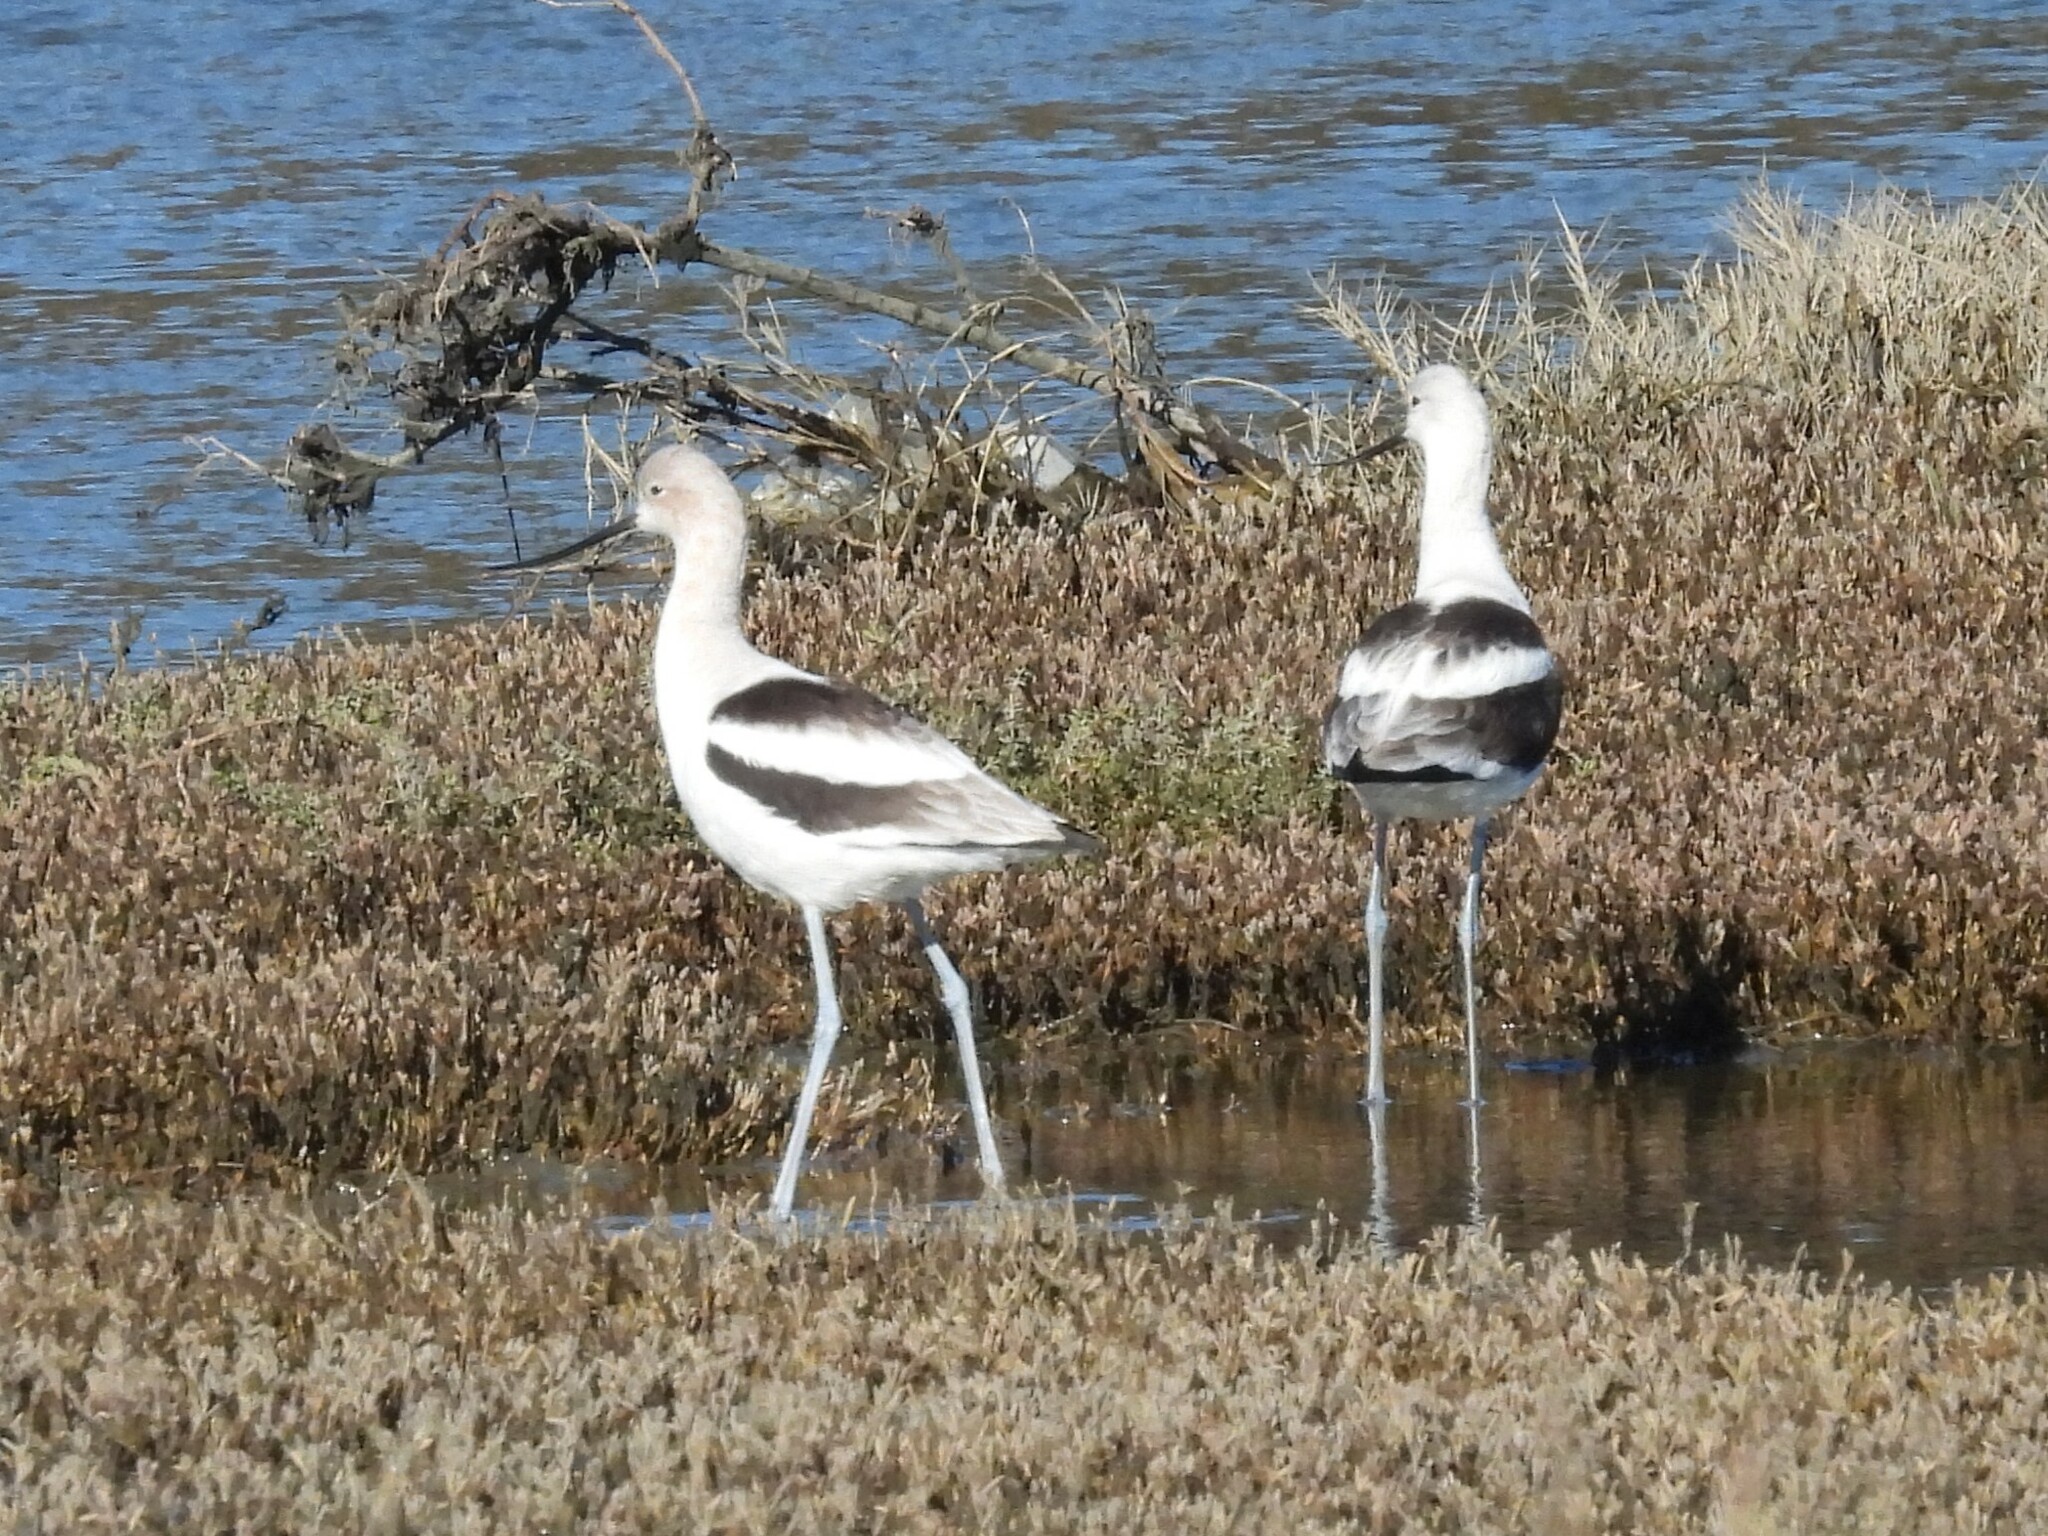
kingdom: Animalia
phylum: Chordata
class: Aves
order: Charadriiformes
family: Recurvirostridae
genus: Recurvirostra
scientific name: Recurvirostra americana
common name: American avocet
